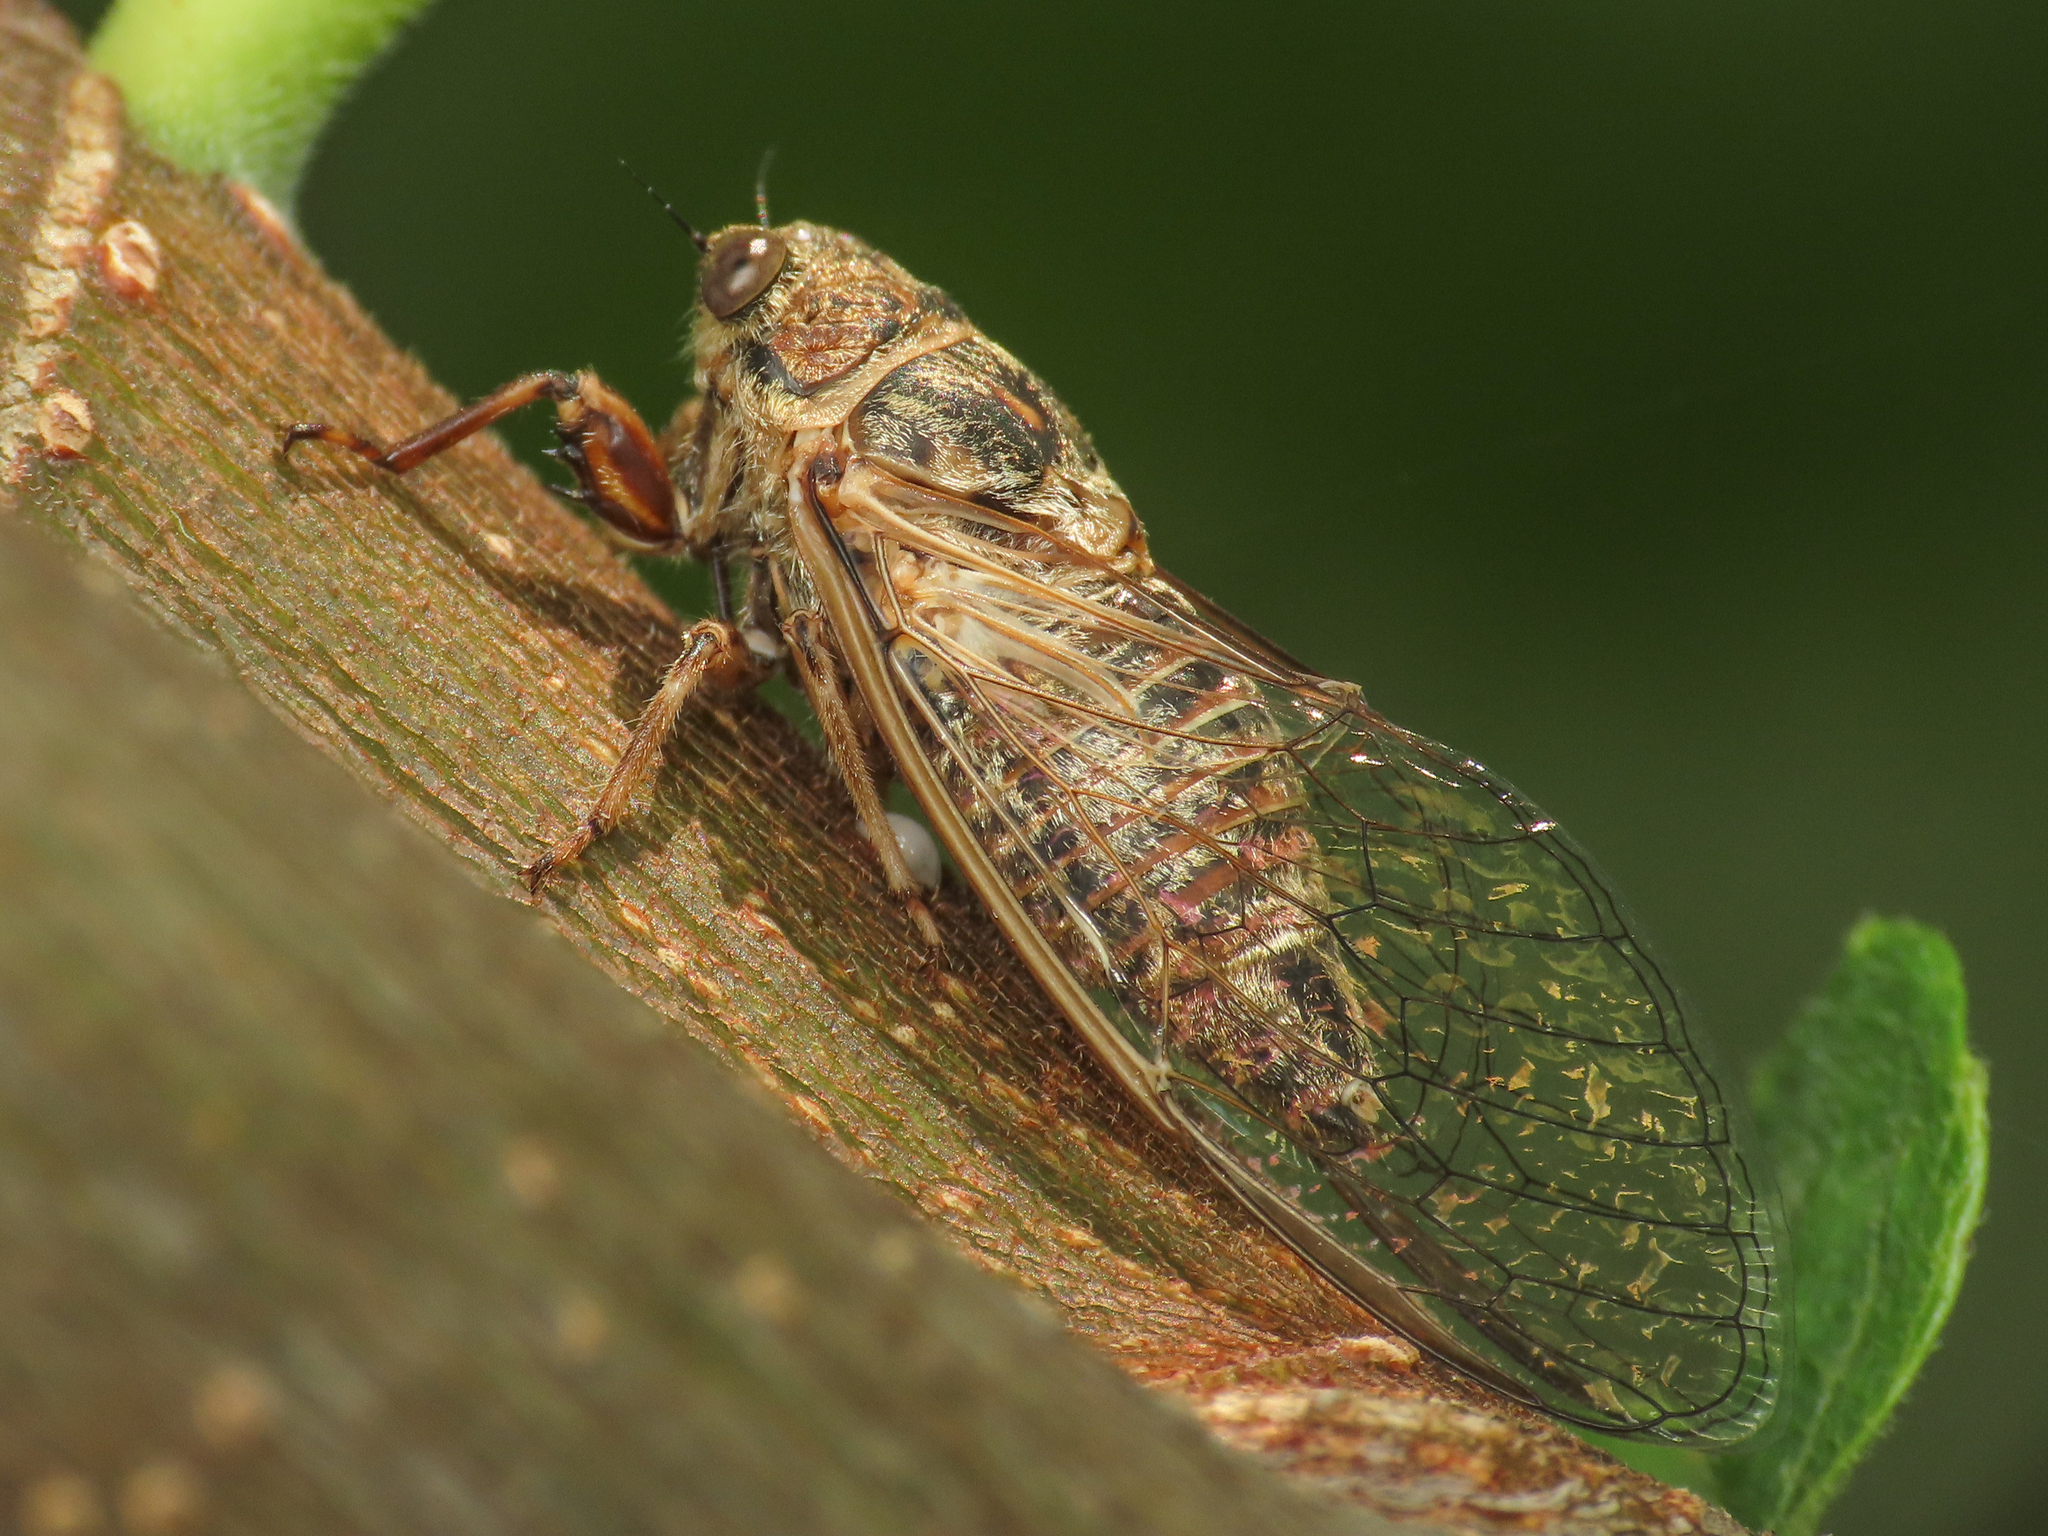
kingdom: Animalia
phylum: Arthropoda
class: Insecta
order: Hemiptera
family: Cicadidae
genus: Tettigettalna
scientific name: Tettigettalna argentata
